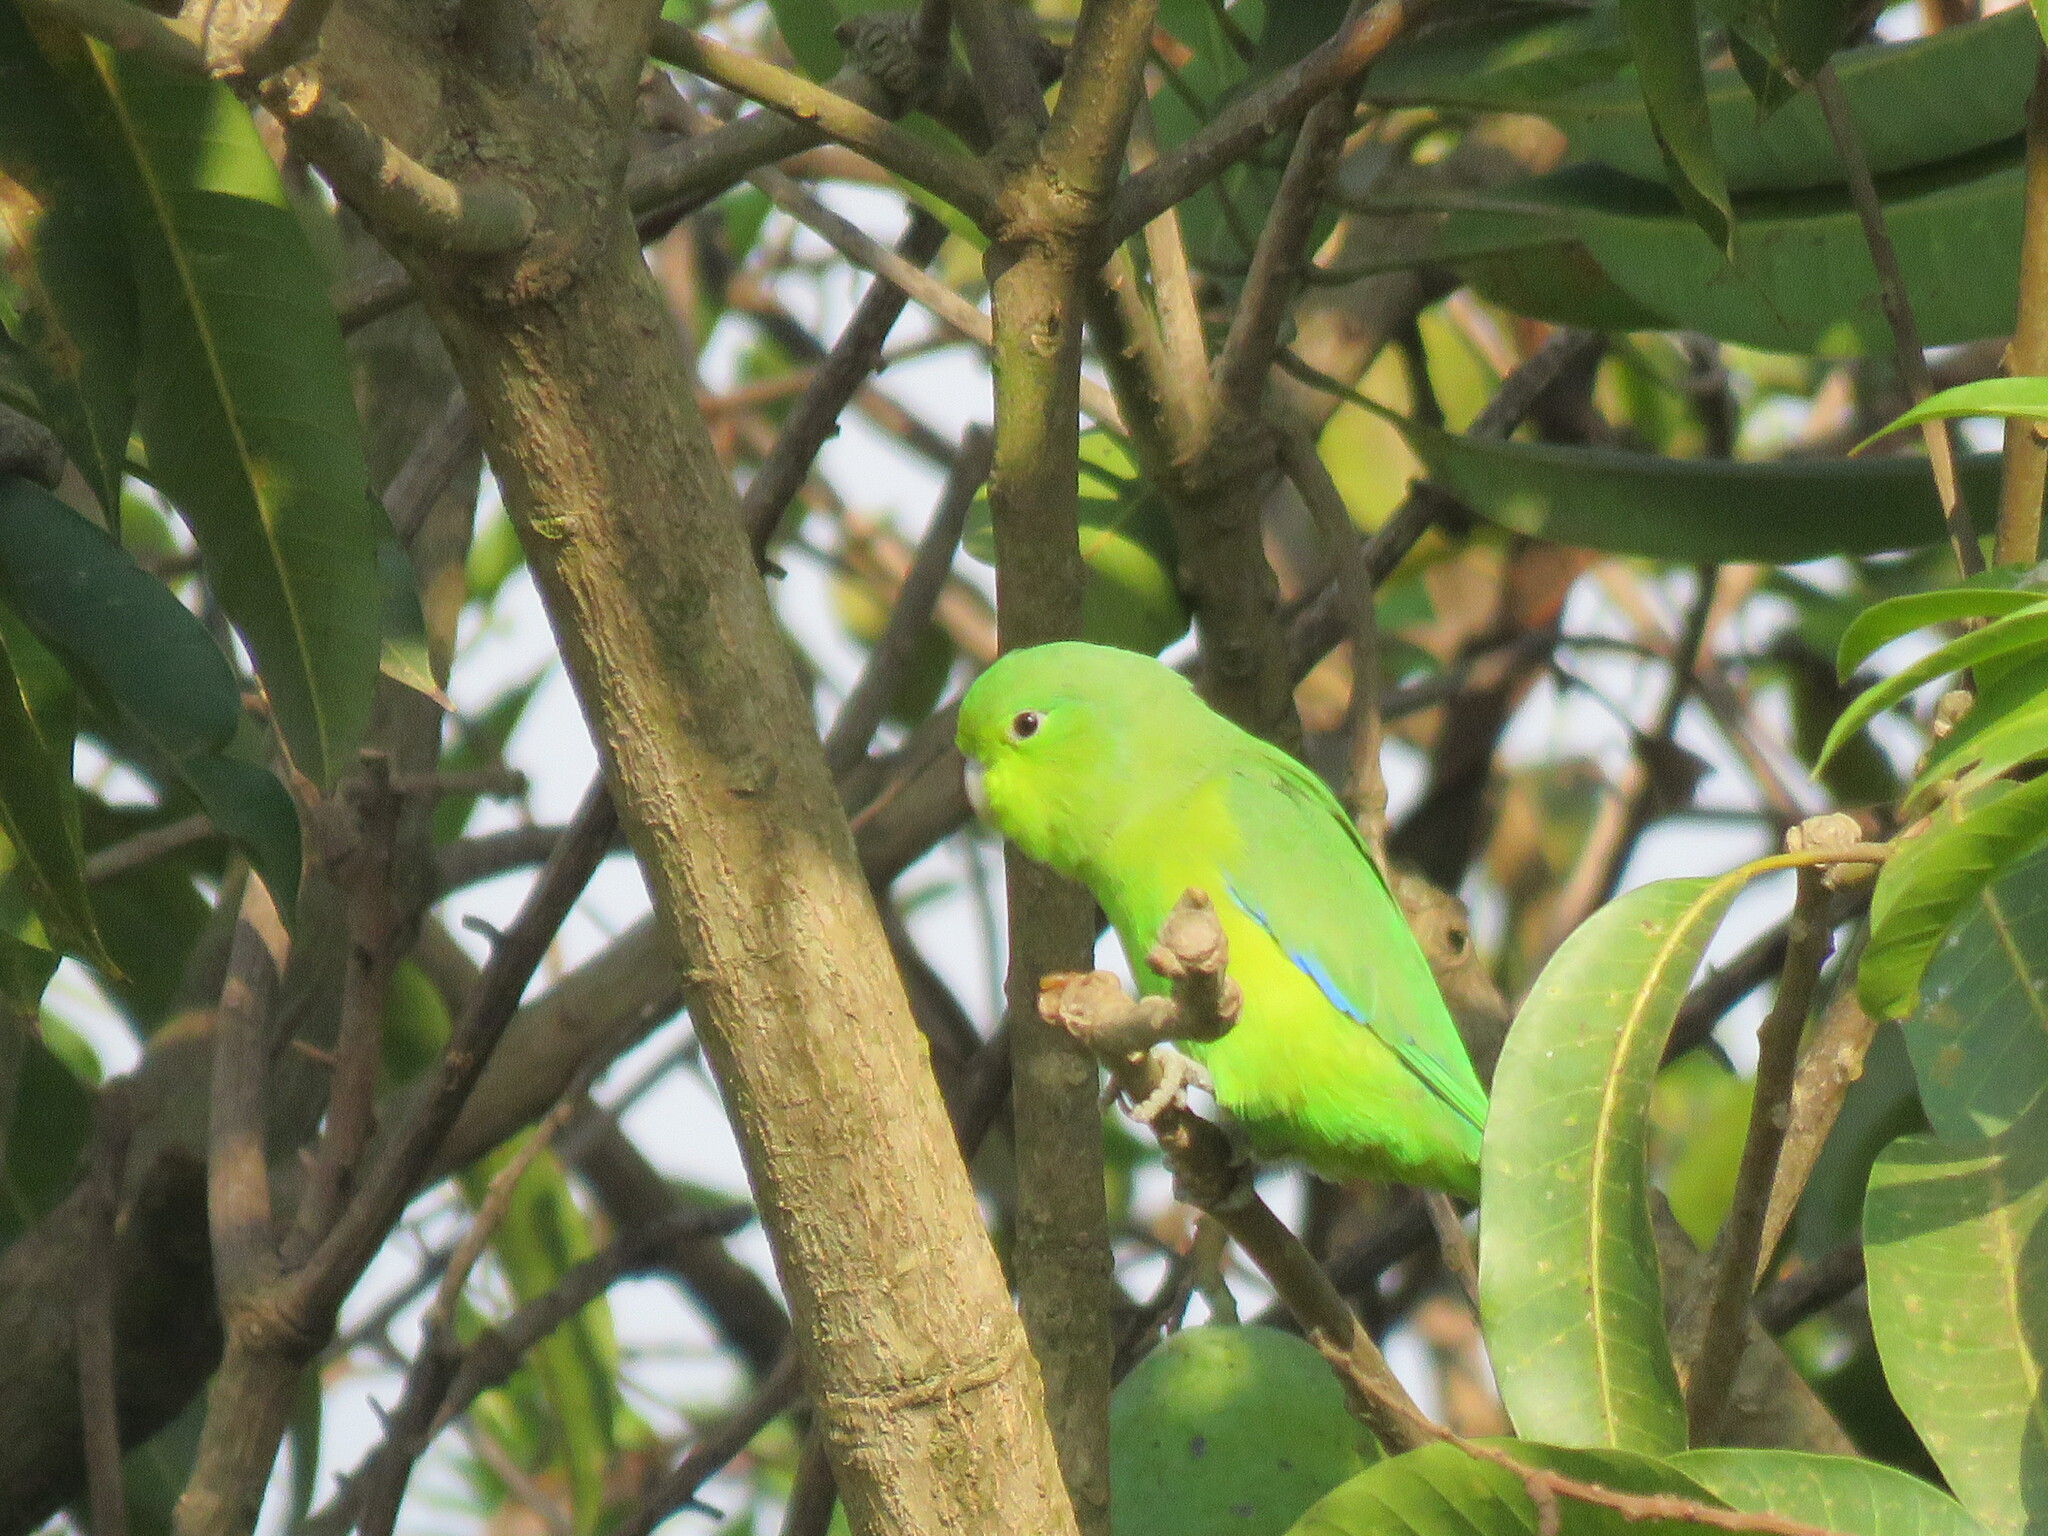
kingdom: Animalia
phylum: Chordata
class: Aves
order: Psittaciformes
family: Psittacidae
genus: Forpus
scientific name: Forpus xanthopterygius
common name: Blue-winged parrotlet
